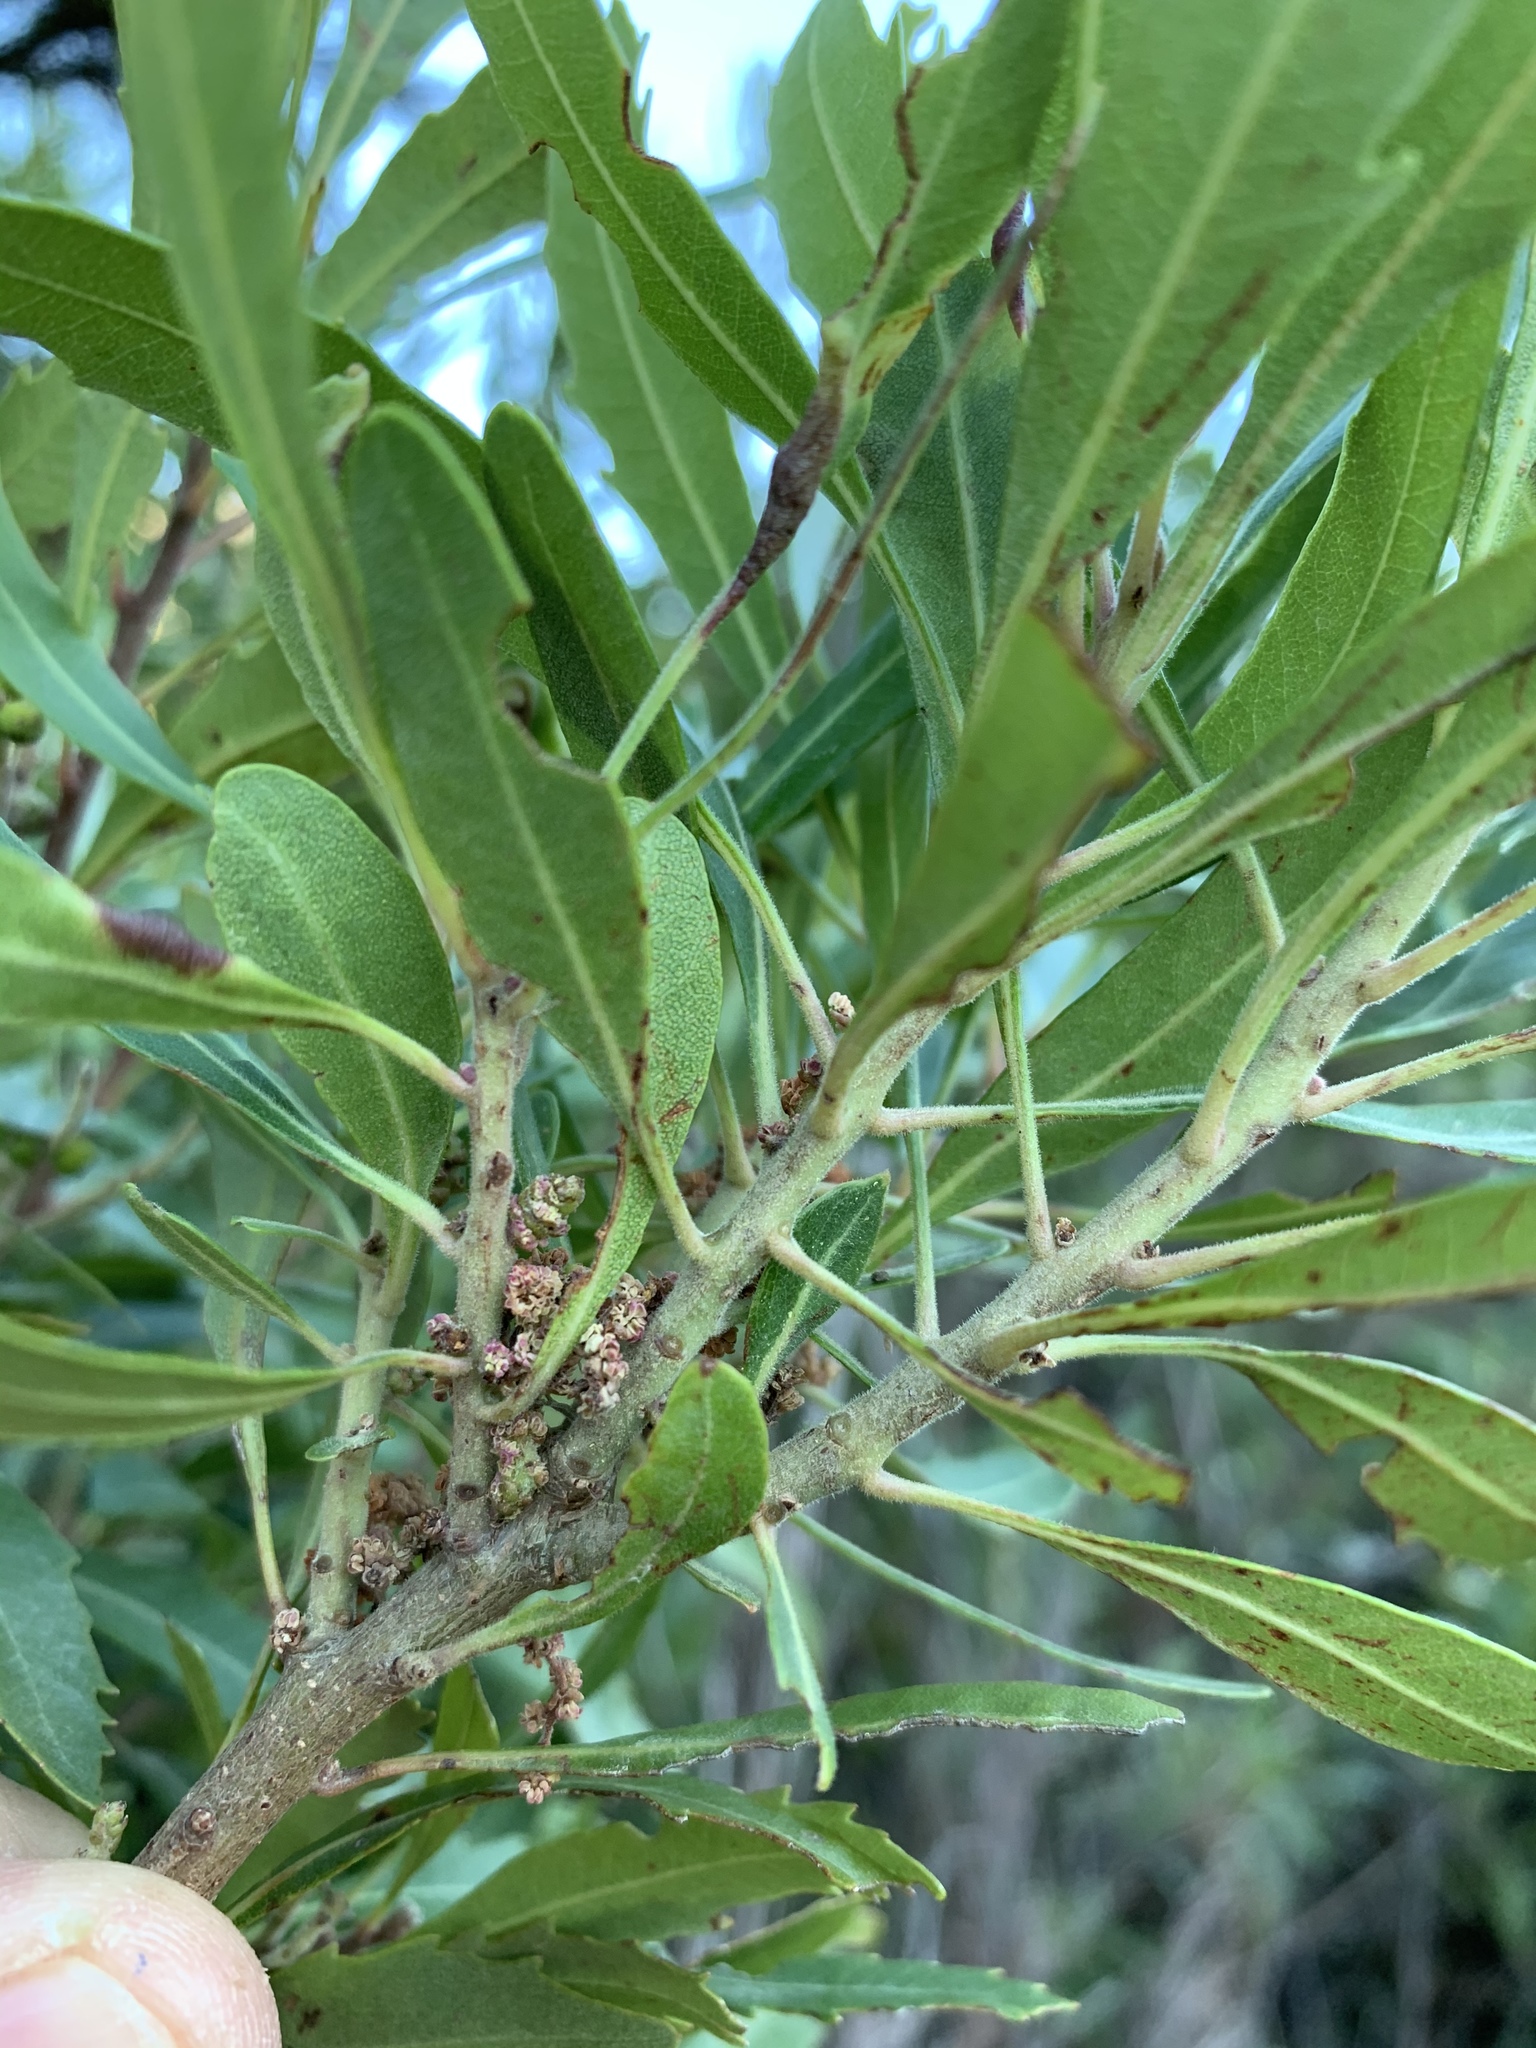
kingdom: Plantae
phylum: Tracheophyta
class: Magnoliopsida
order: Fagales
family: Myricaceae
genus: Morella
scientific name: Morella serrata
